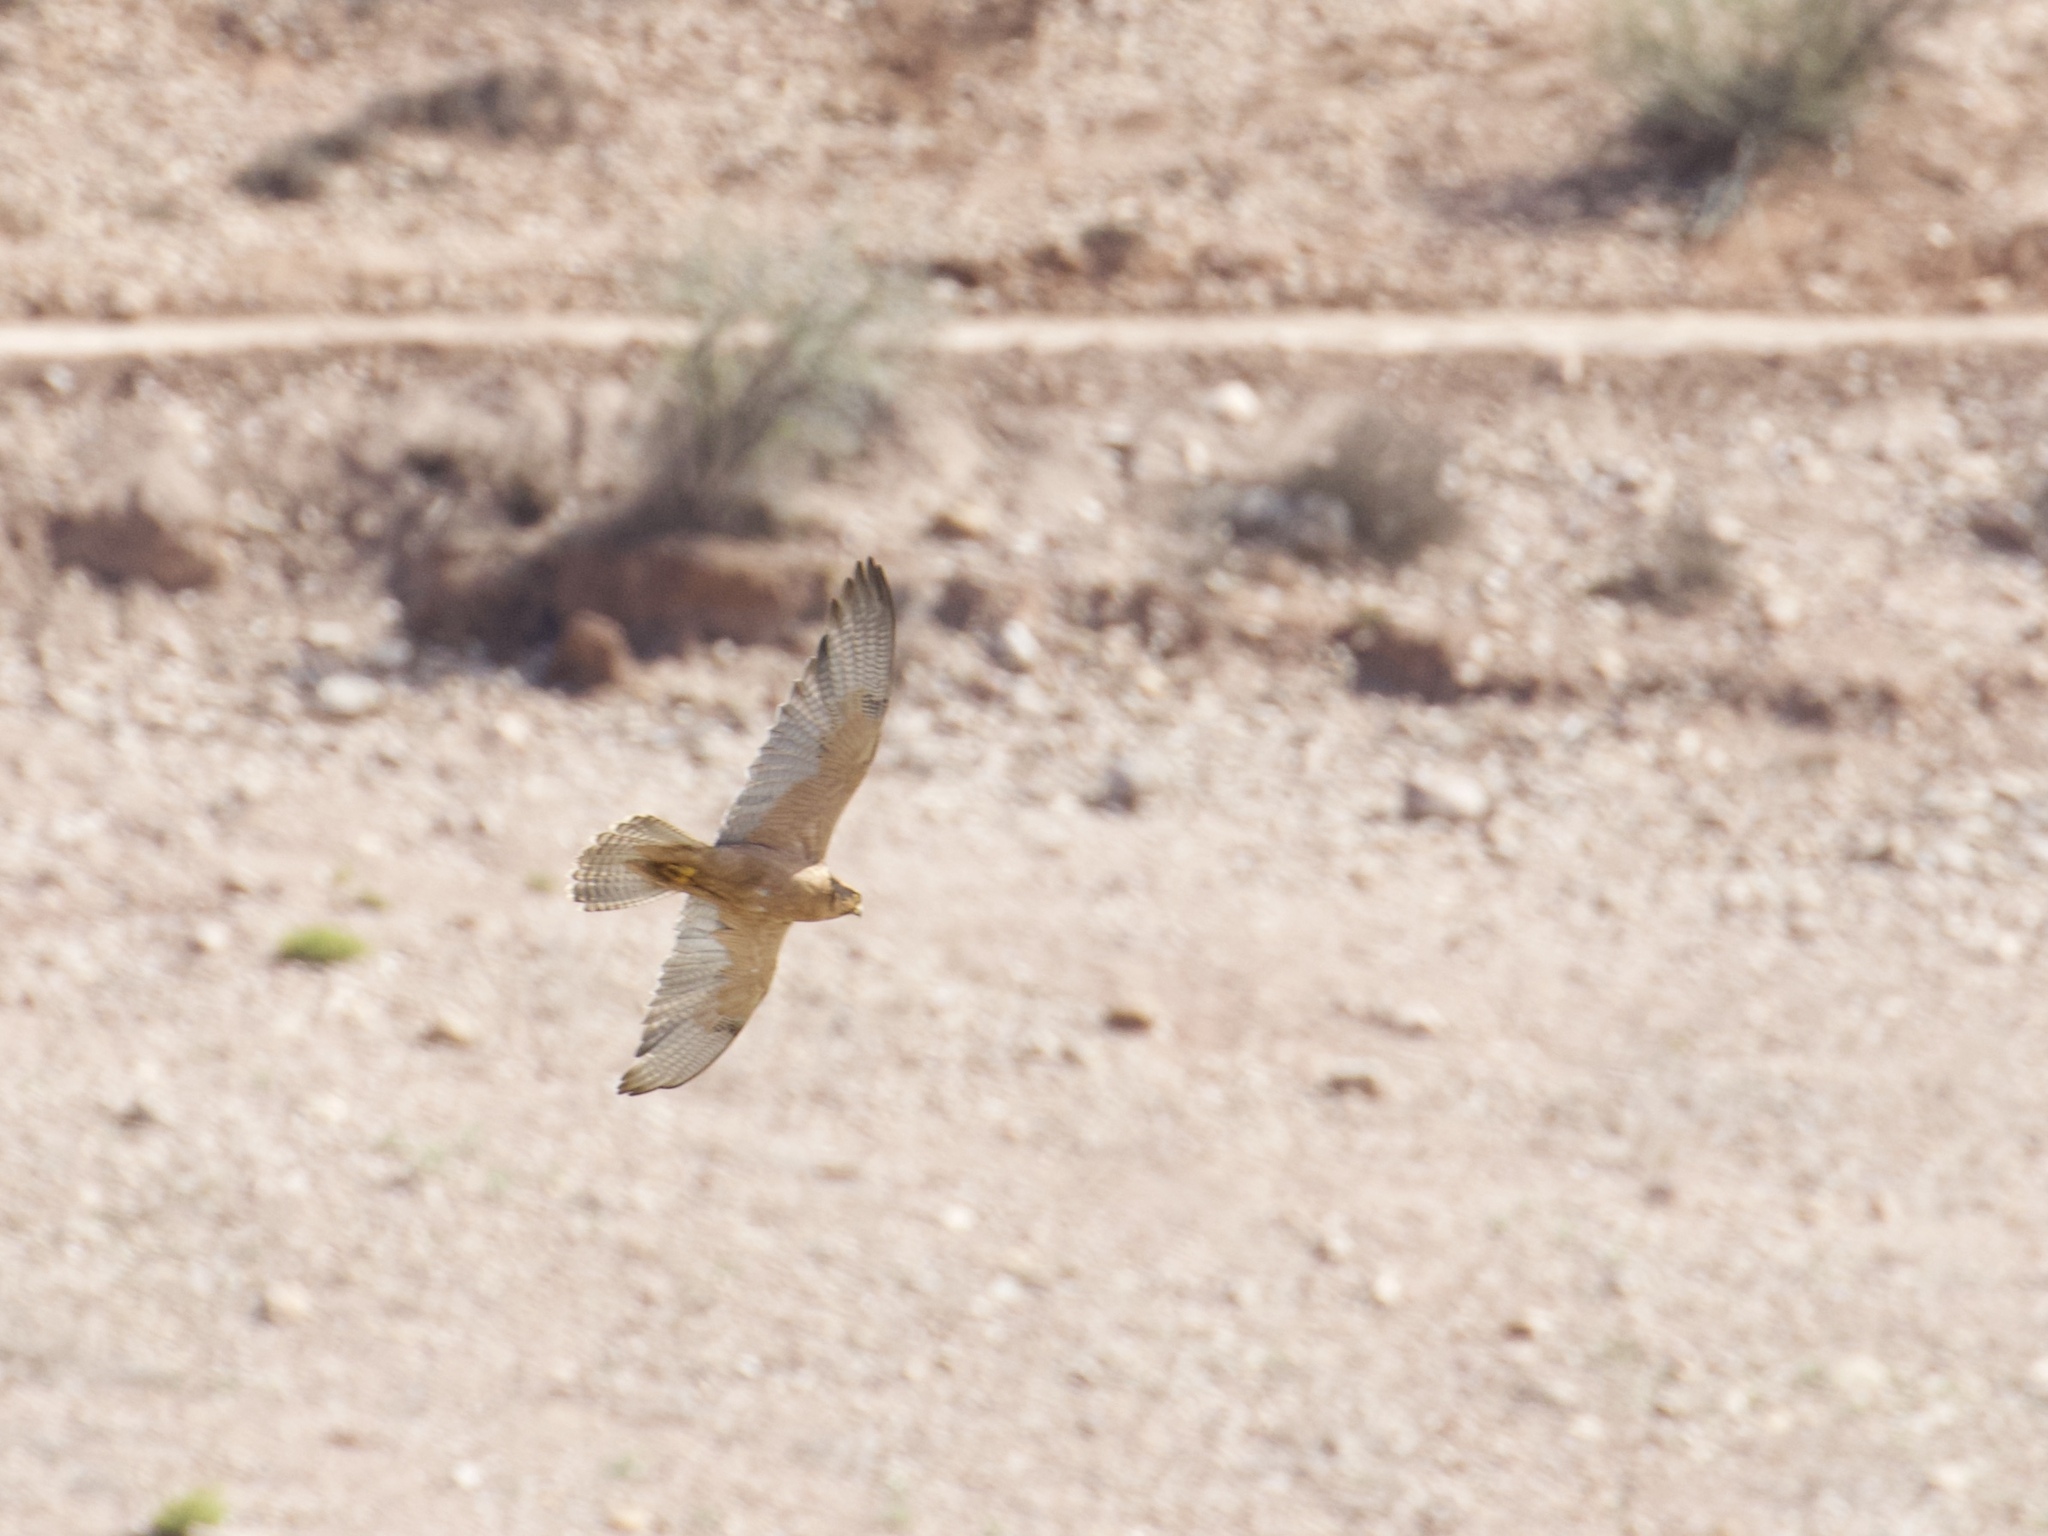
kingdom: Animalia
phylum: Chordata
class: Aves
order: Falconiformes
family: Falconidae
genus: Falco
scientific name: Falco biarmicus
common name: Lanner falcon
